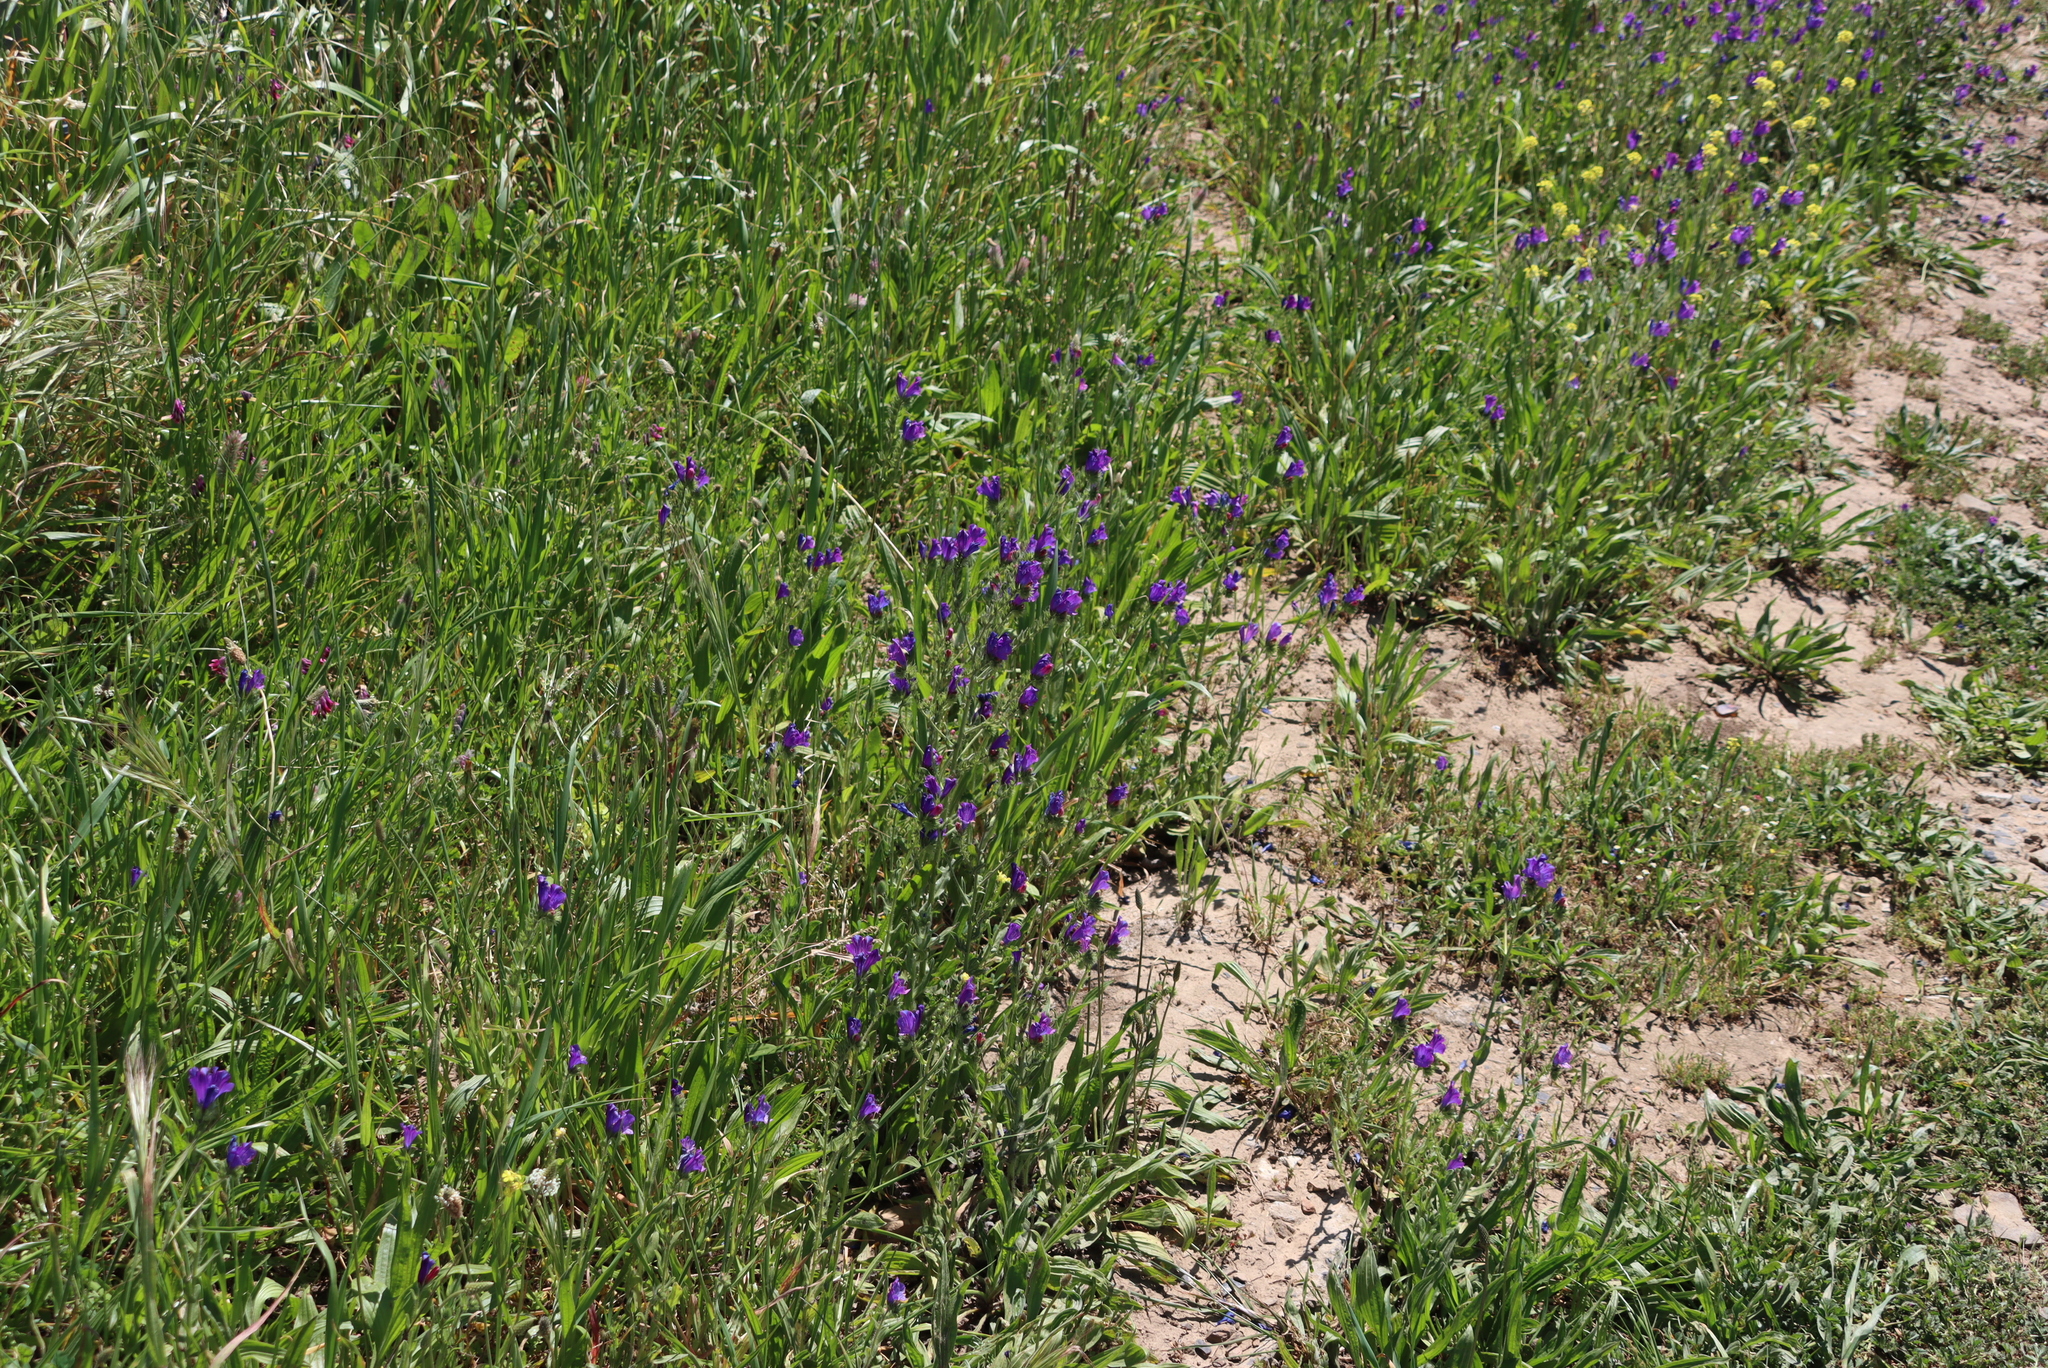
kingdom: Plantae
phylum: Tracheophyta
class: Magnoliopsida
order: Boraginales
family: Boraginaceae
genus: Echium
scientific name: Echium plantagineum
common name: Purple viper's-bugloss
